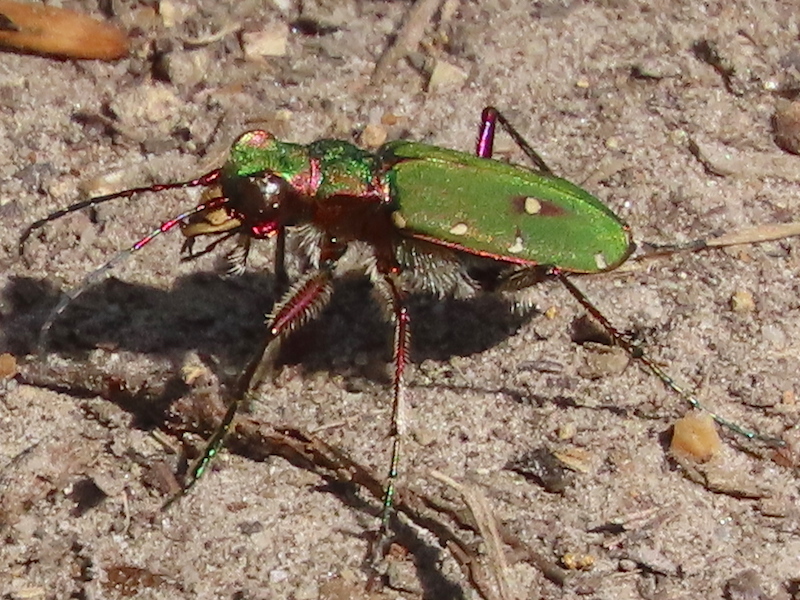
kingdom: Animalia
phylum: Arthropoda
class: Insecta
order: Coleoptera
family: Carabidae
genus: Cicindela
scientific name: Cicindela campestris
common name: Common tiger beetle
